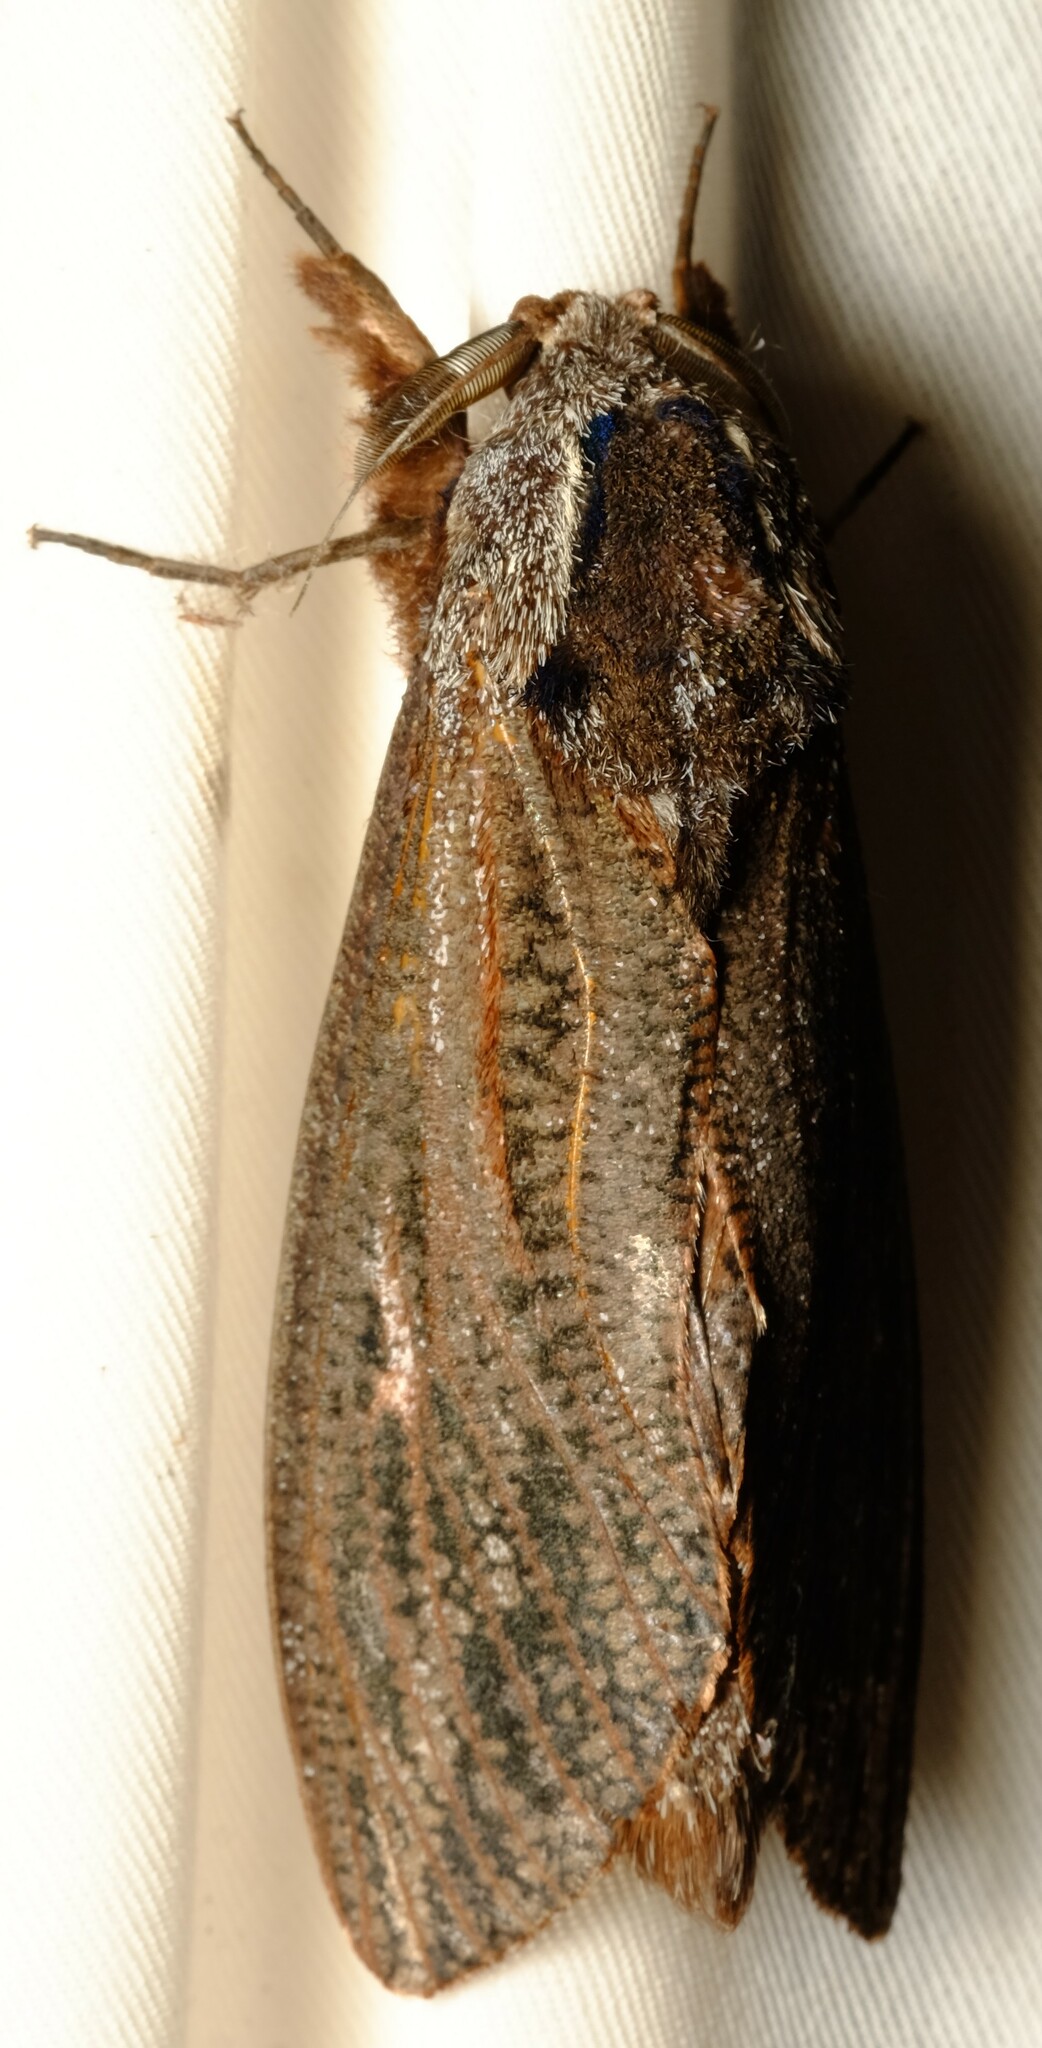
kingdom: Animalia
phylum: Arthropoda
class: Insecta
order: Lepidoptera
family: Cossidae
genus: Endoxyla
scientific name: Endoxyla encalypti
